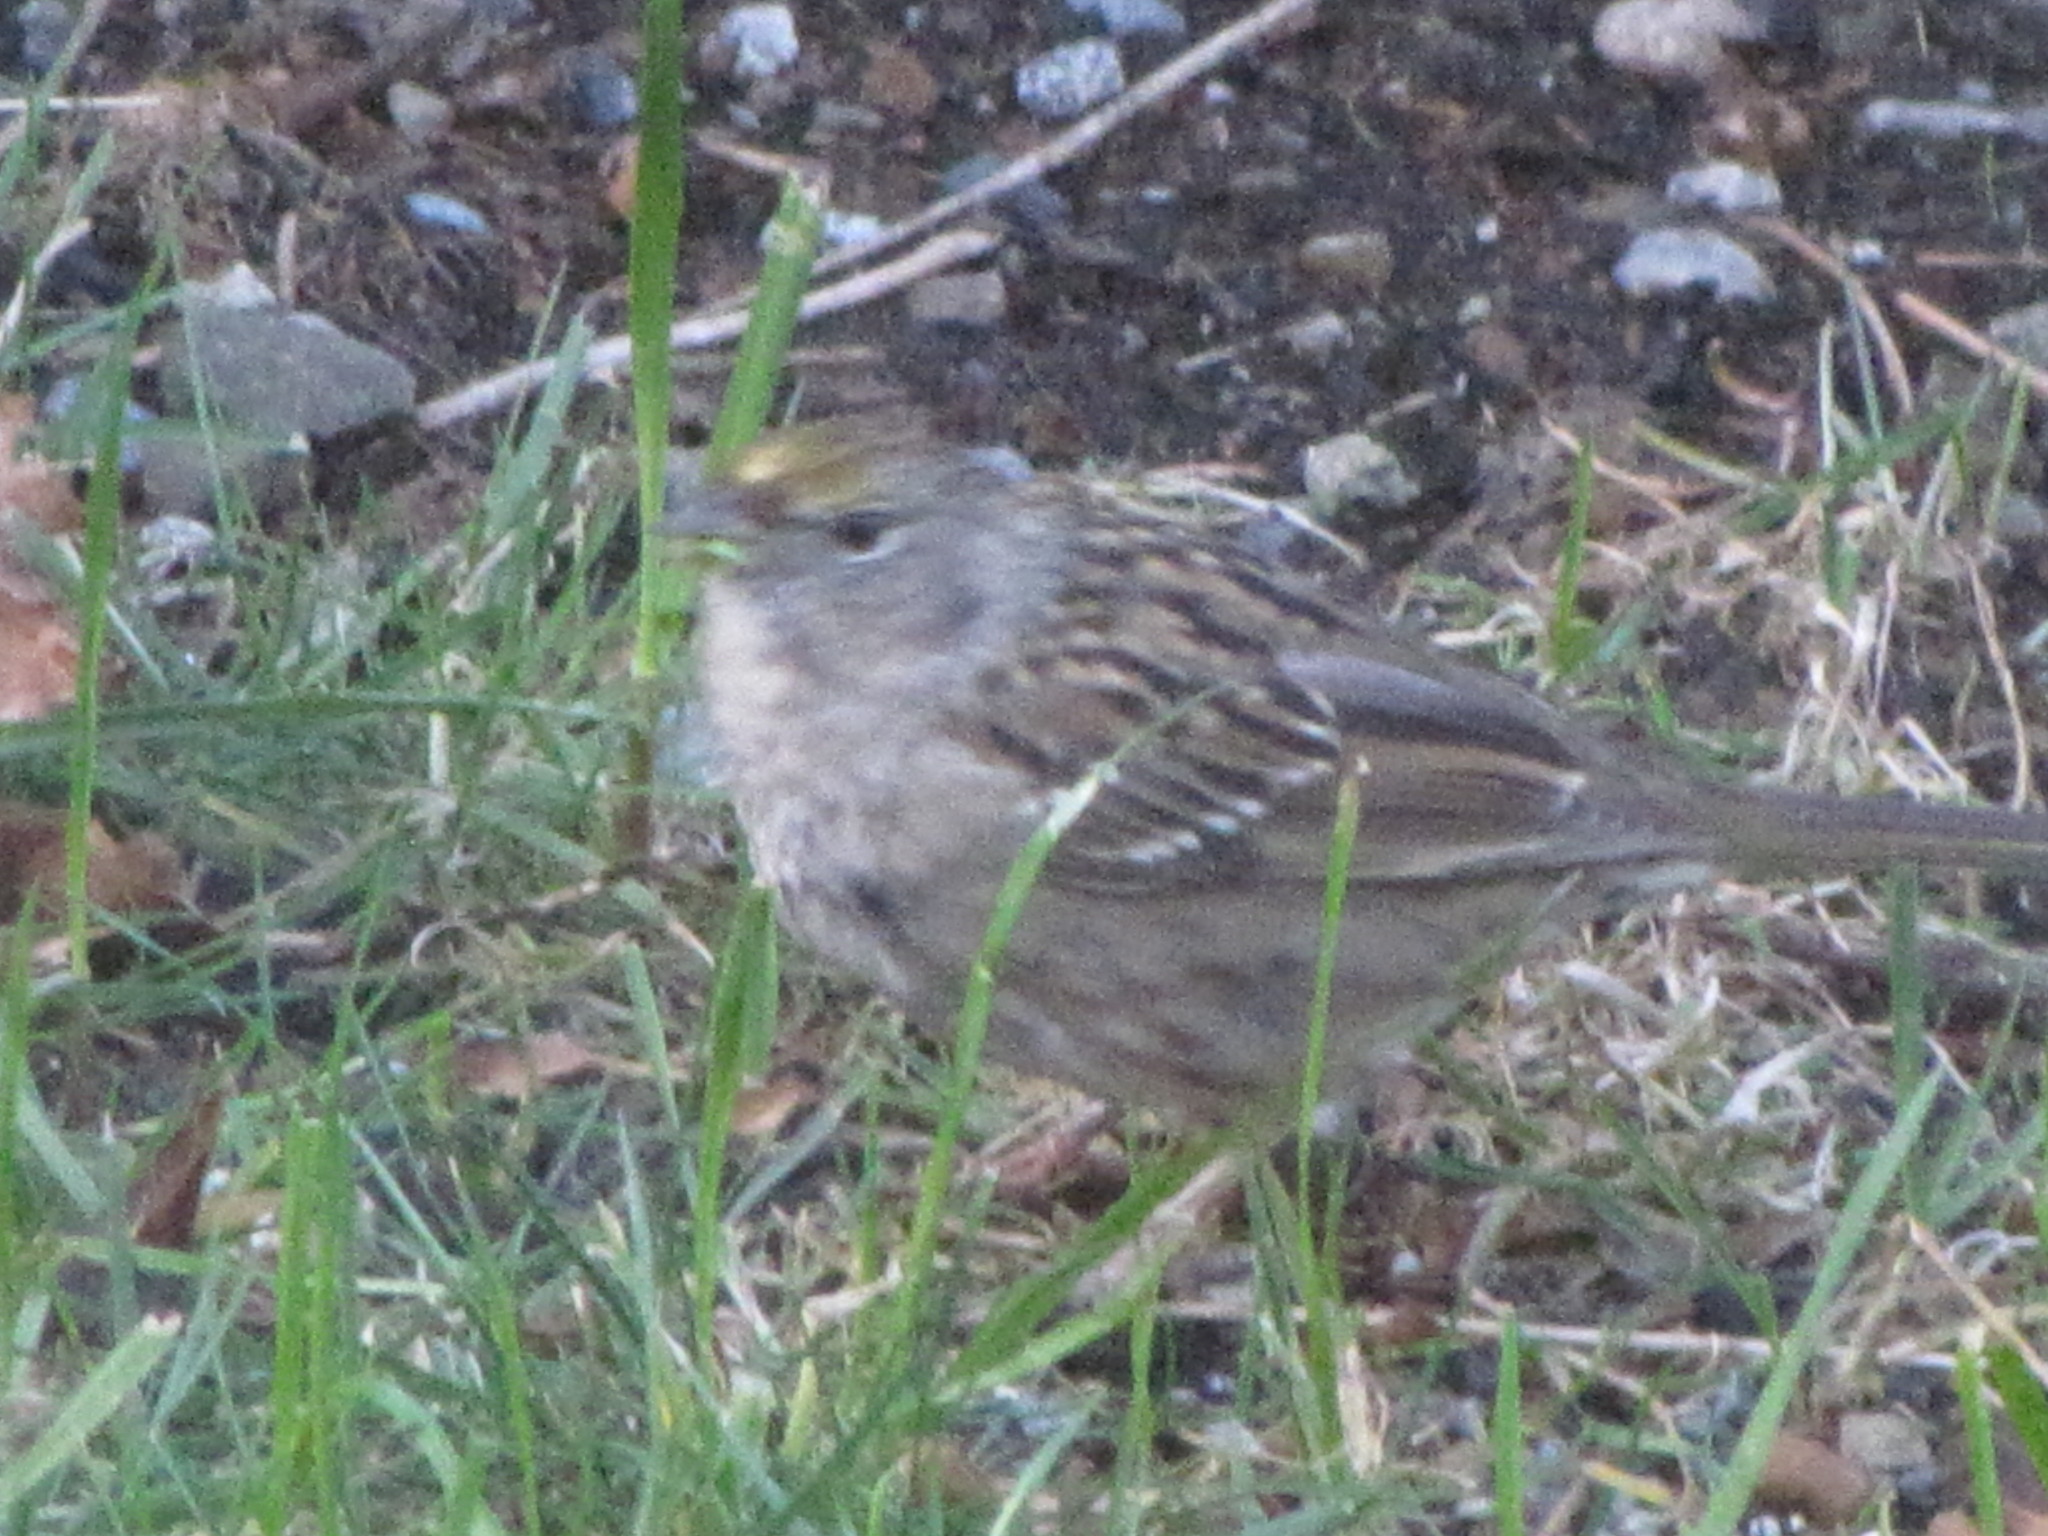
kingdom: Animalia
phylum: Chordata
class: Aves
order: Passeriformes
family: Passerellidae
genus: Zonotrichia
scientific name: Zonotrichia atricapilla
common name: Golden-crowned sparrow
